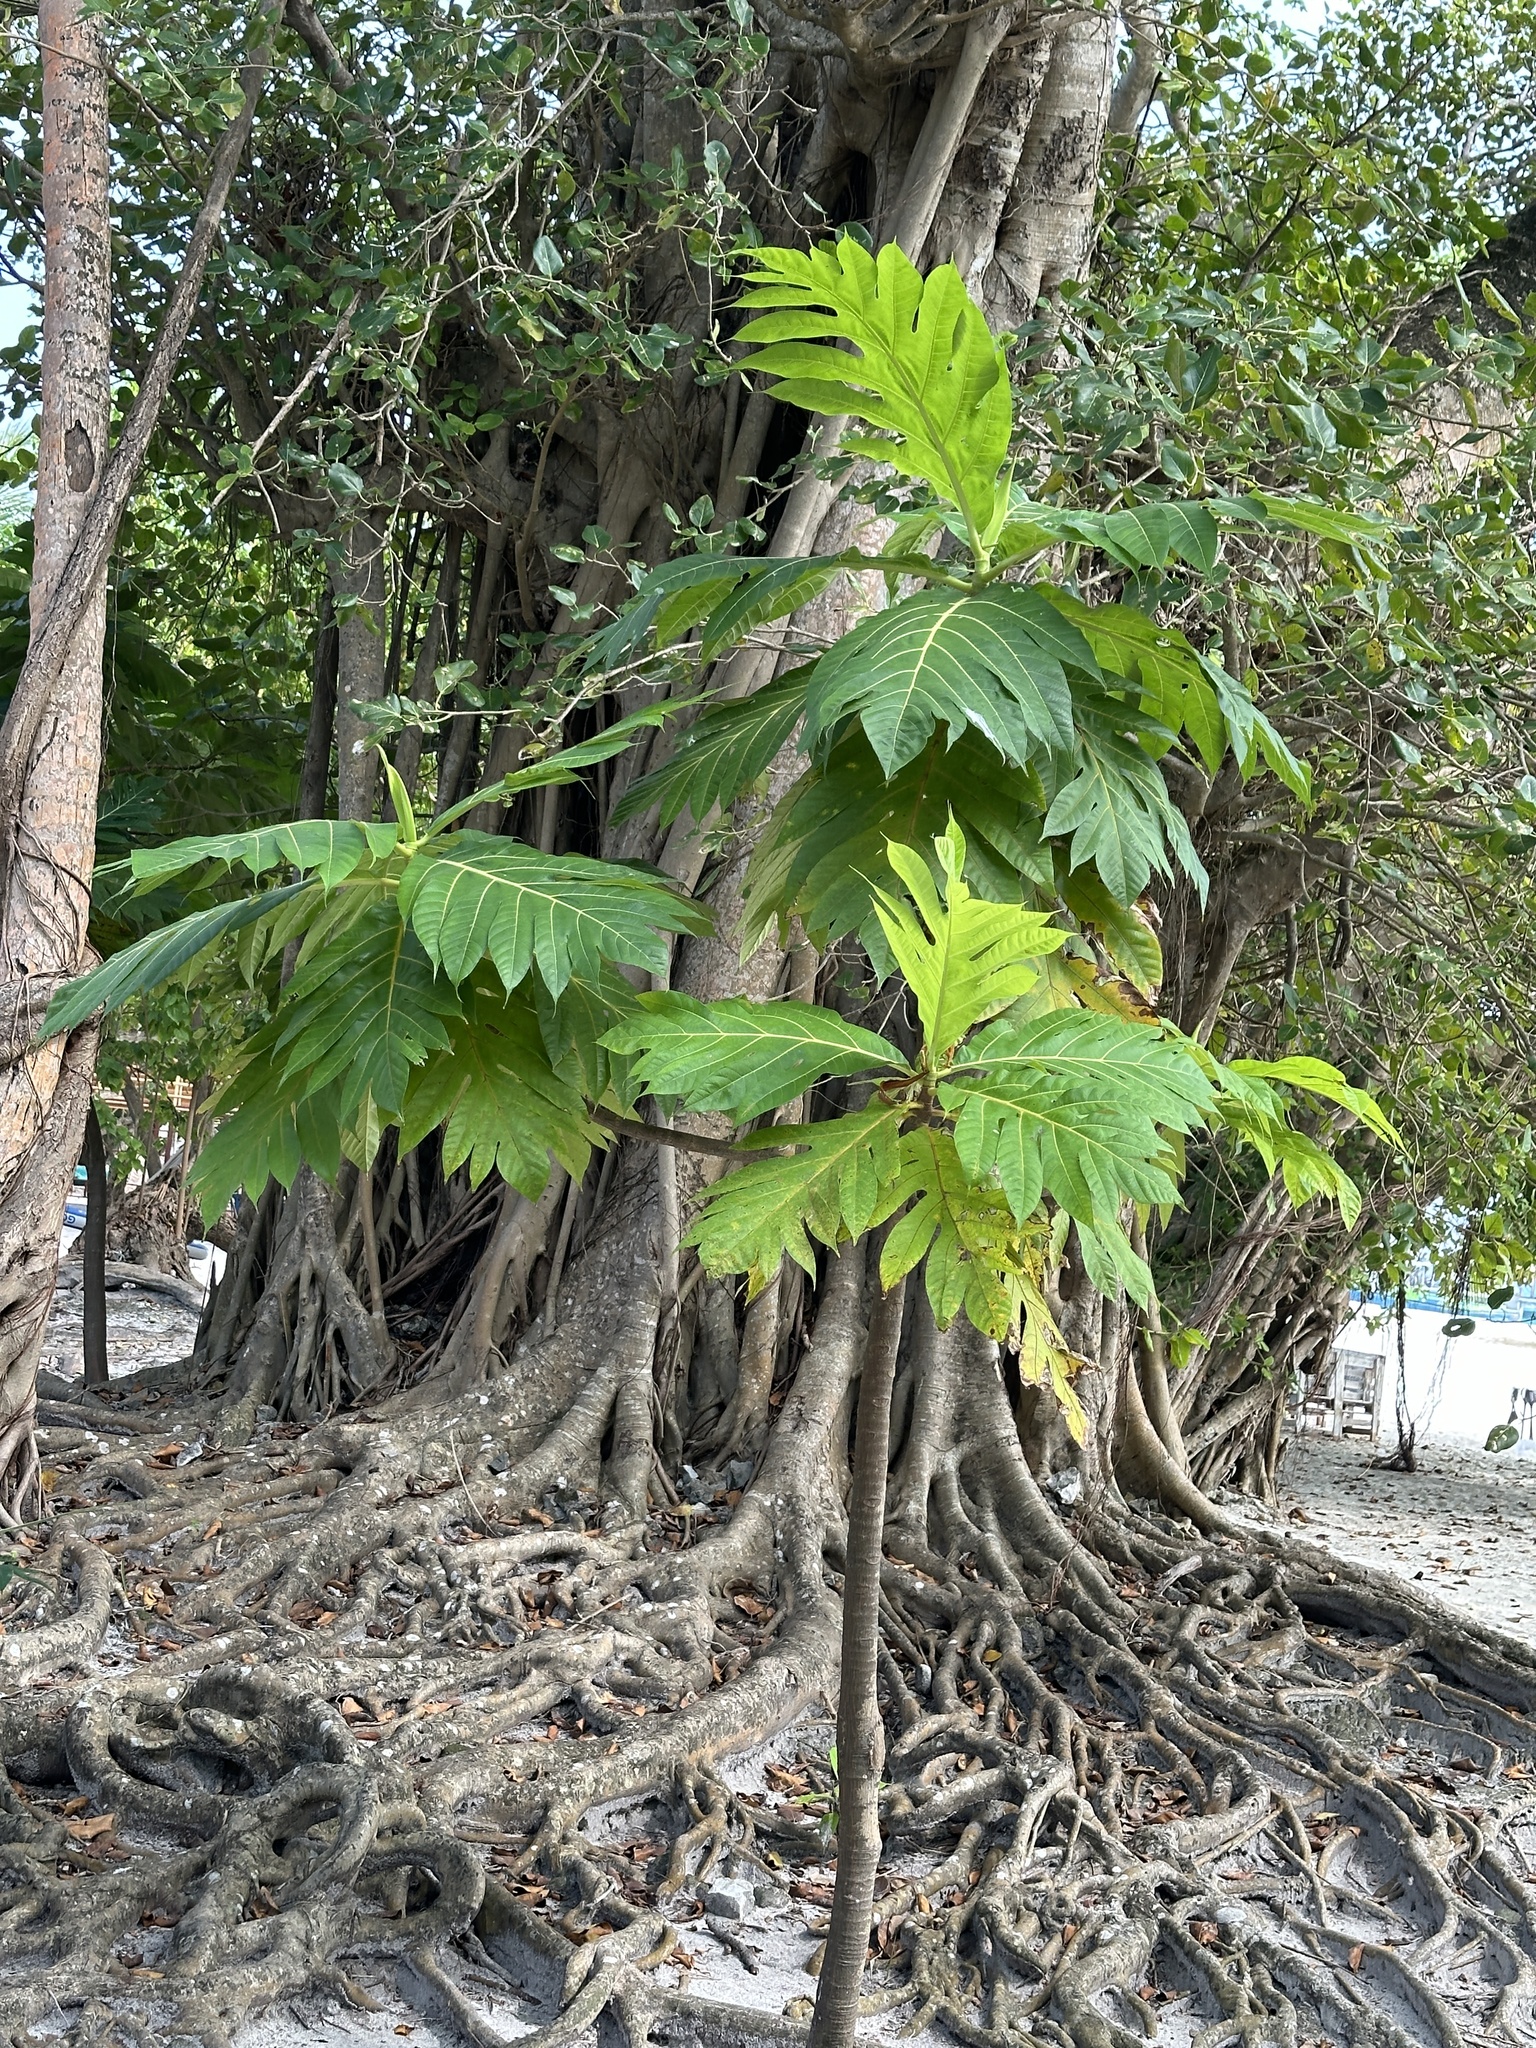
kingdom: Plantae
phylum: Tracheophyta
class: Magnoliopsida
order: Rosales
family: Moraceae
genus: Artocarpus
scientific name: Artocarpus altilis
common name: Breadfruit
